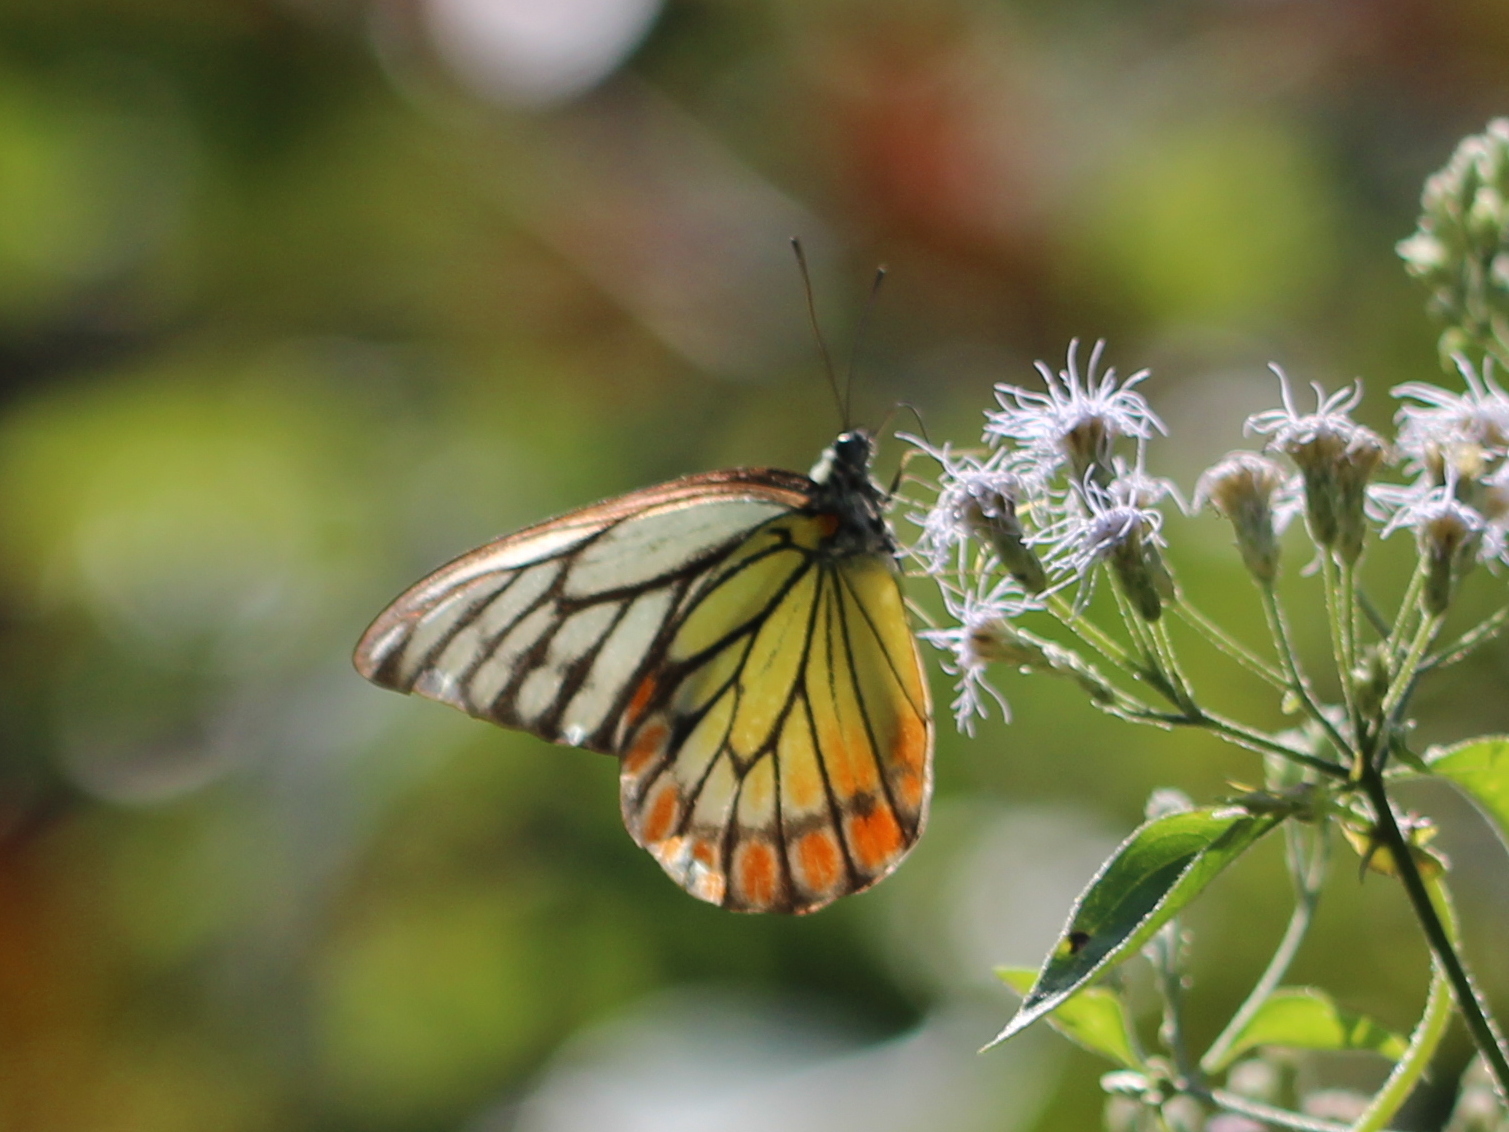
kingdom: Animalia
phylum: Arthropoda
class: Insecta
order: Lepidoptera
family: Pieridae
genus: Prioneris
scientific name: Prioneris sita
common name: Painted sawtooth
